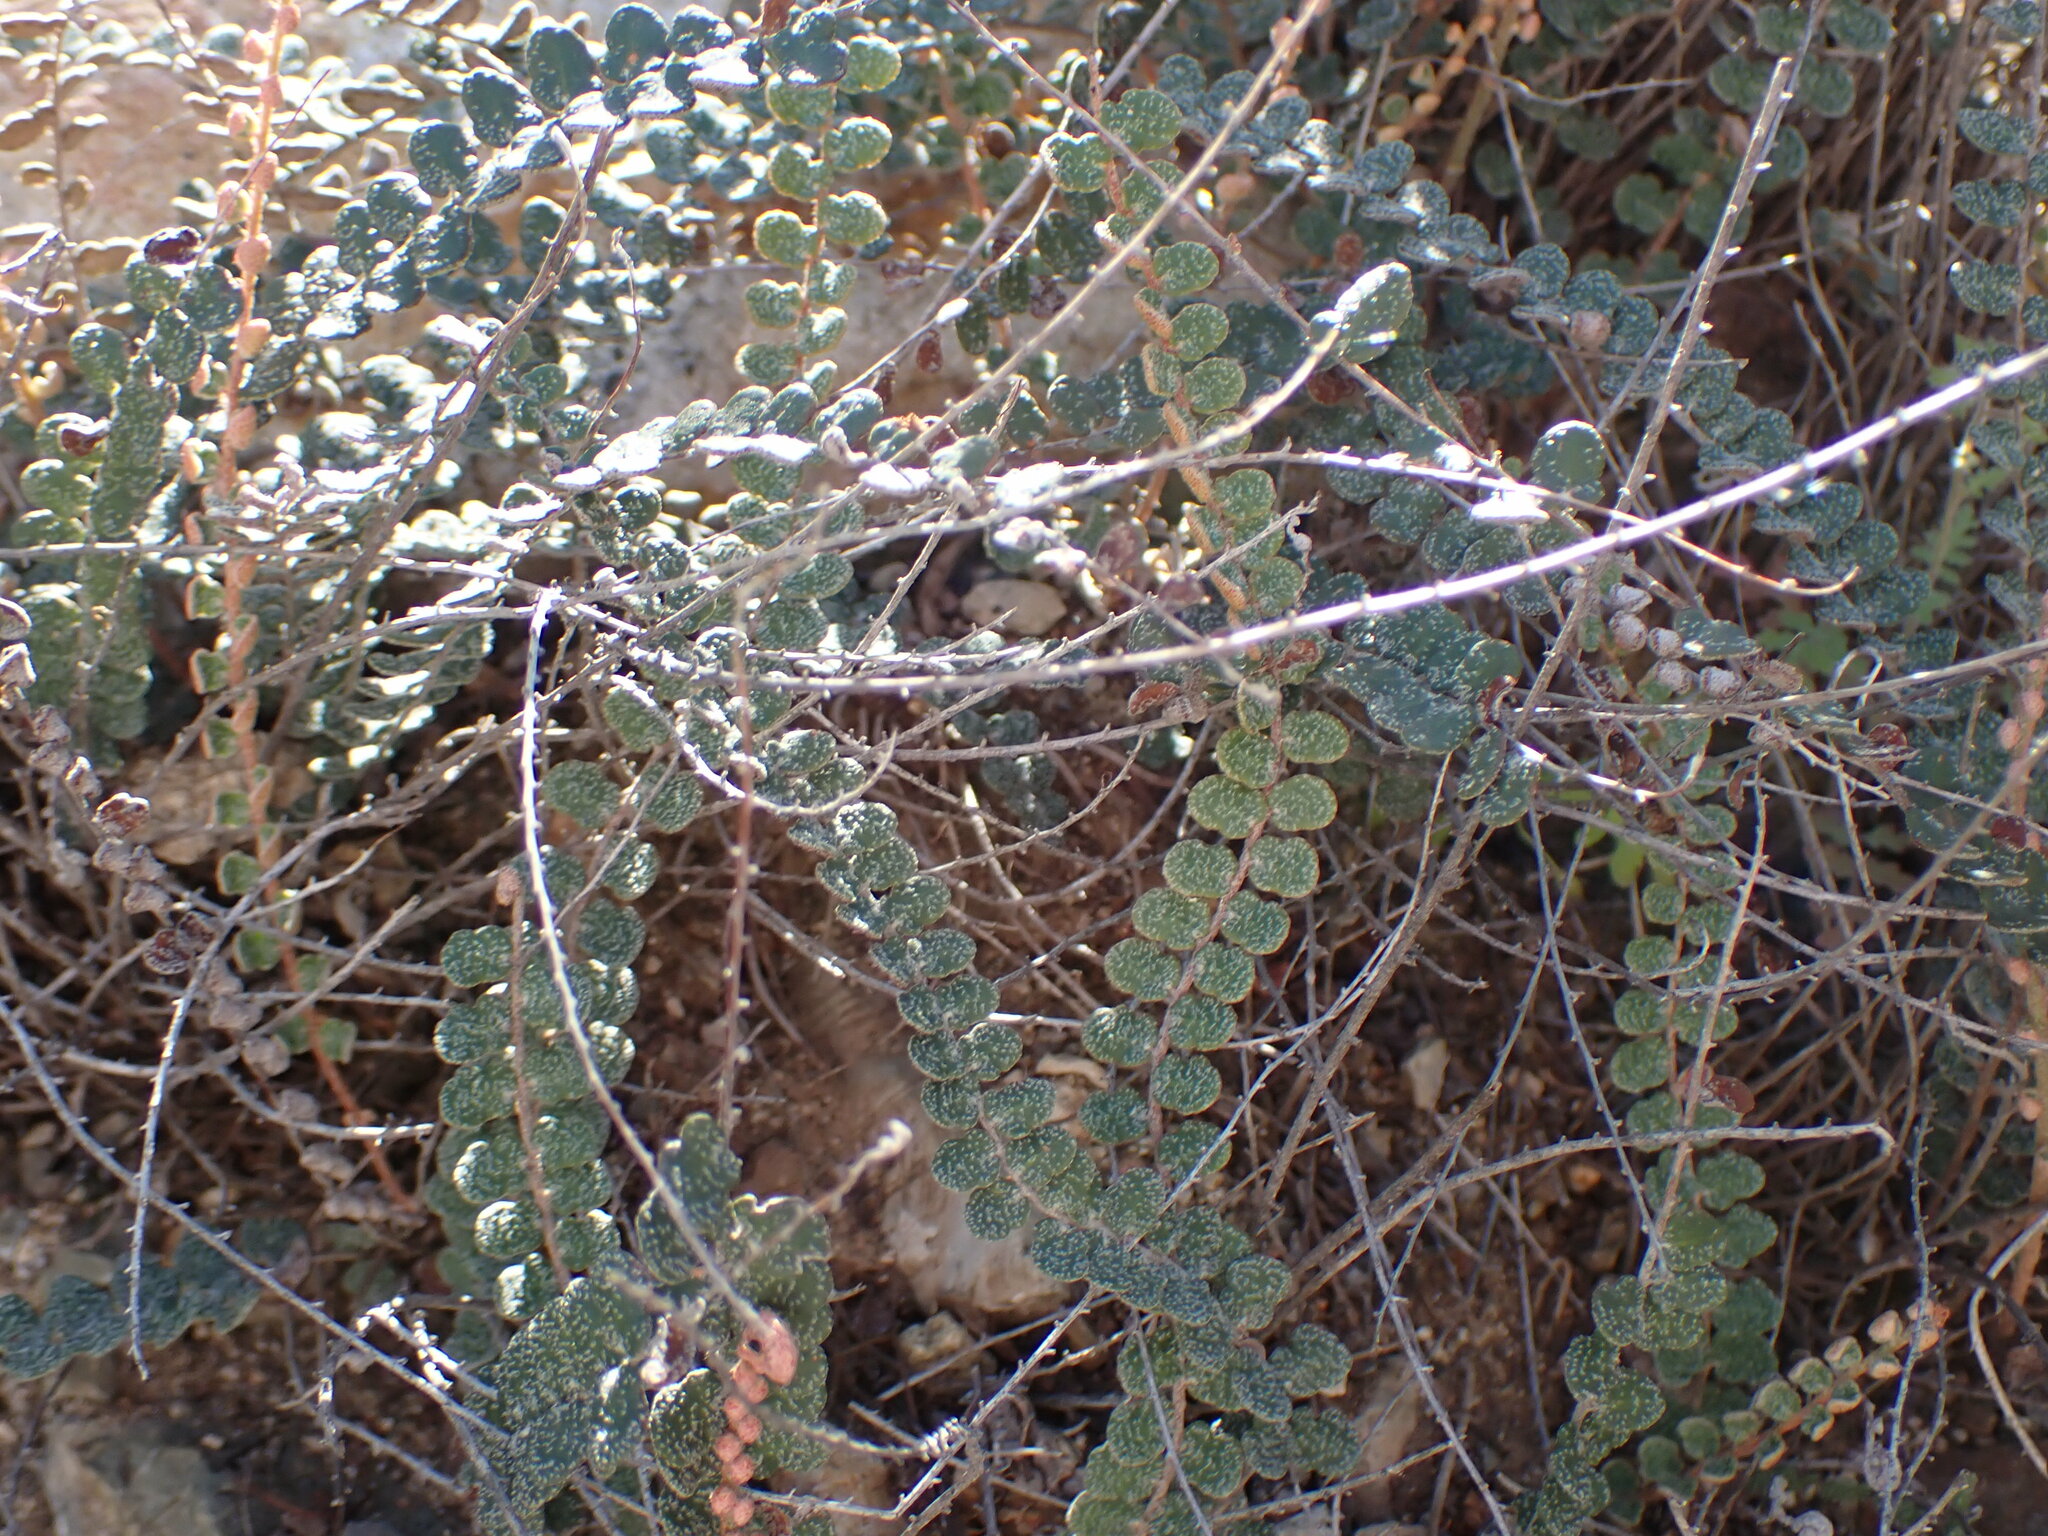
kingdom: Plantae
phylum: Tracheophyta
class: Polypodiopsida
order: Polypodiales
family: Pteridaceae
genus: Astrolepis
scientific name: Astrolepis cochisensis
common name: Scaly cloak fern
